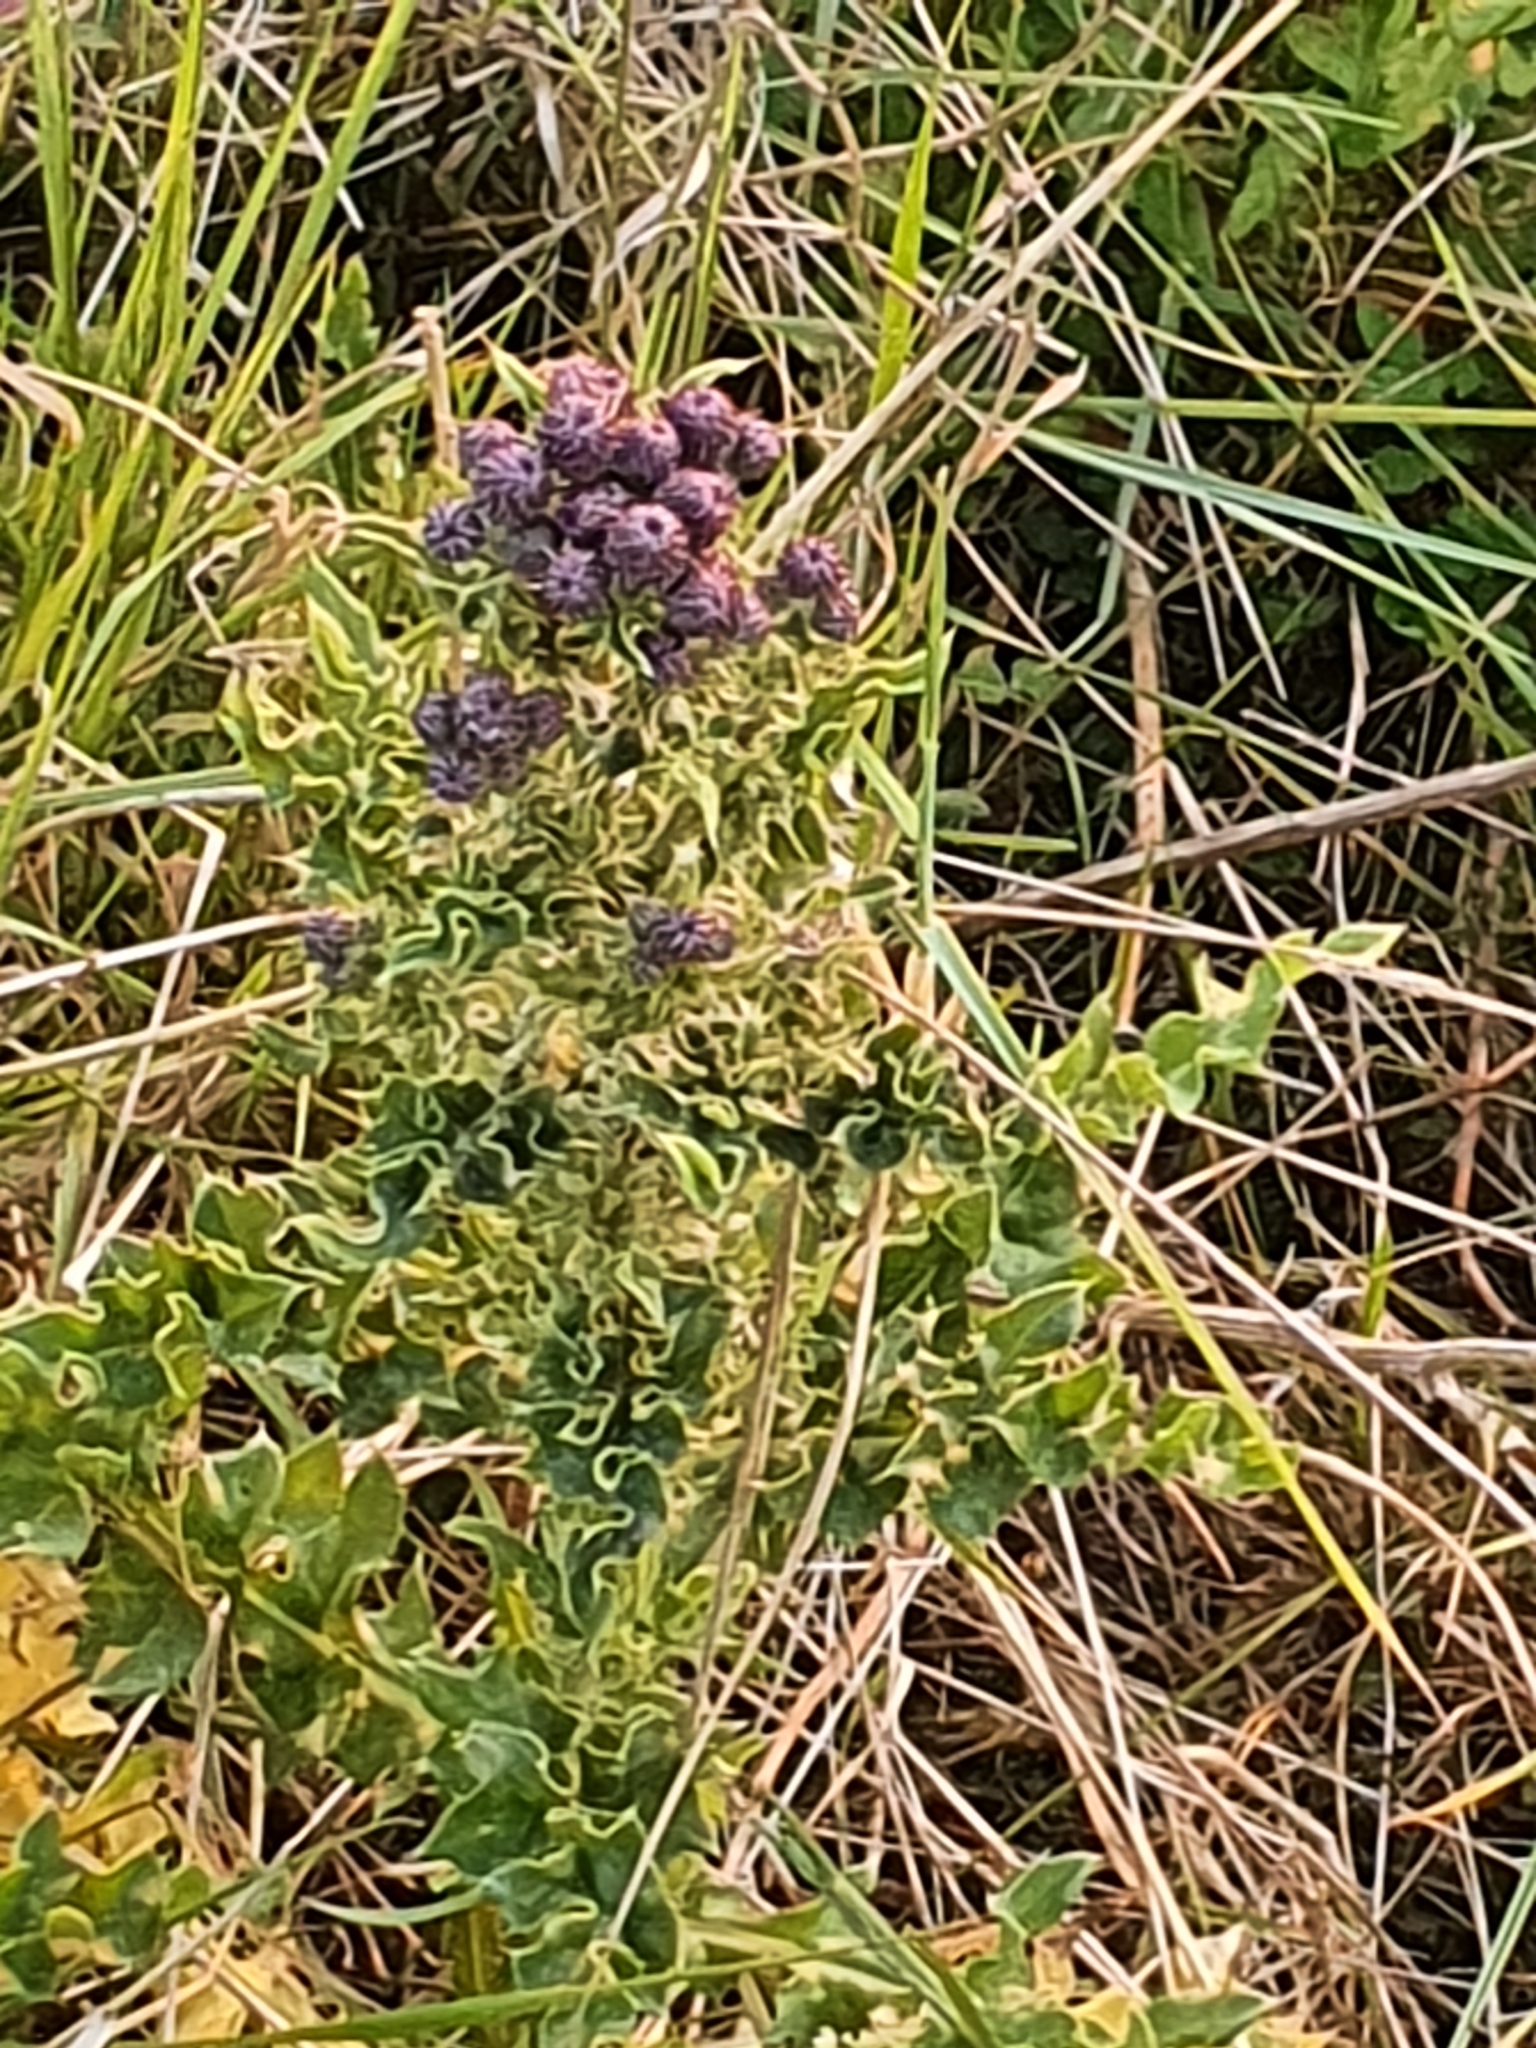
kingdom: Plantae
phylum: Tracheophyta
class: Magnoliopsida
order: Asterales
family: Asteraceae
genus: Cirsium
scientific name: Cirsium arvense
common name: Creeping thistle
